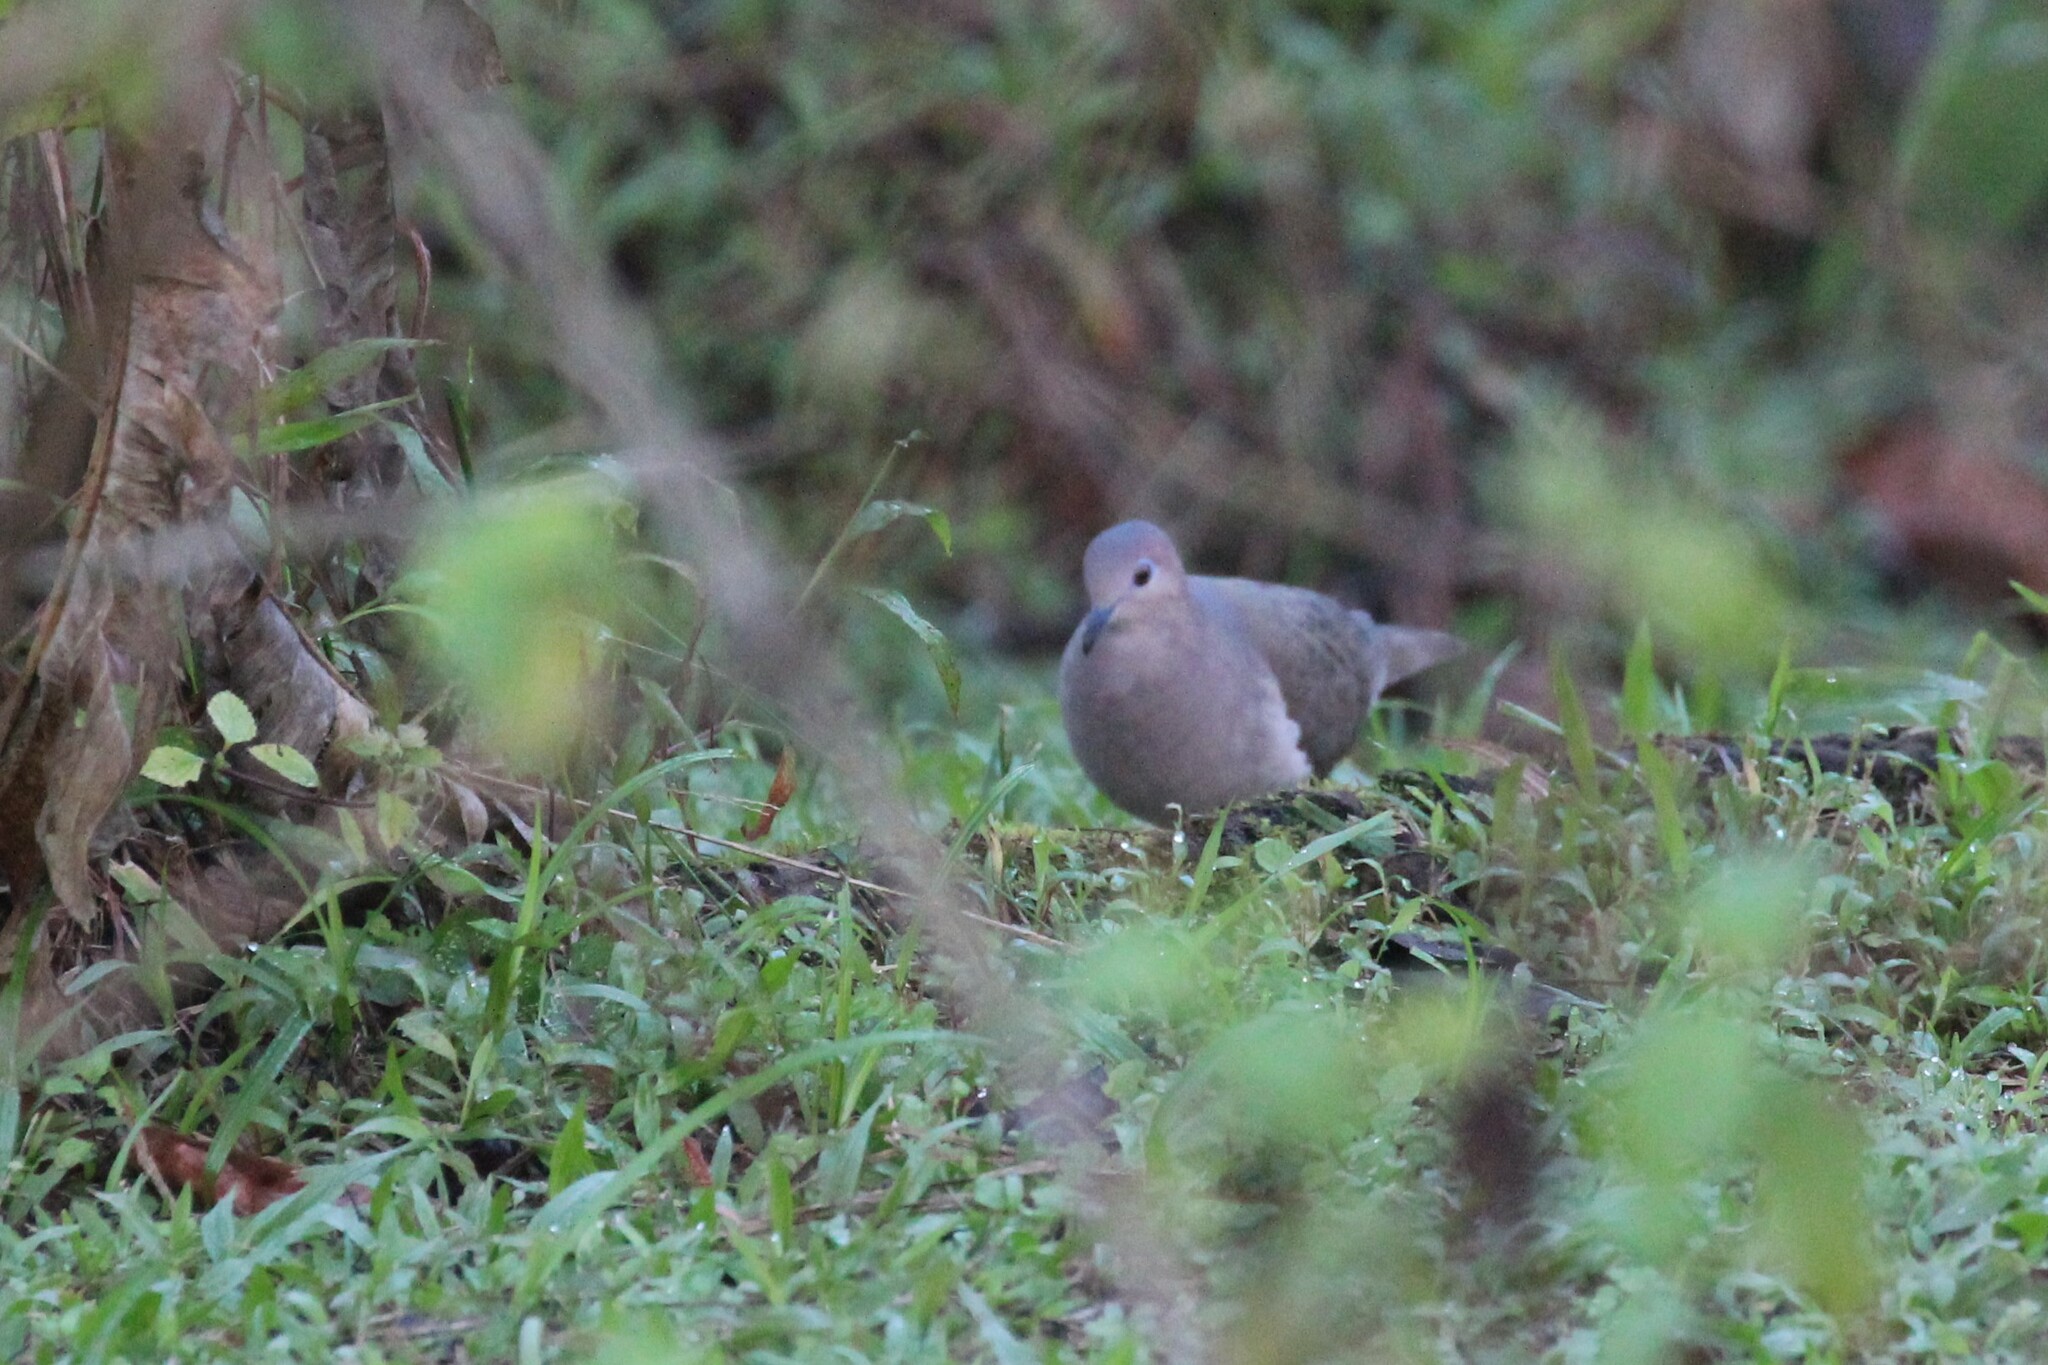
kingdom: Animalia
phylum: Chordata
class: Aves
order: Columbiformes
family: Columbidae
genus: Leptotila
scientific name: Leptotila verreauxi
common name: White-tipped dove
